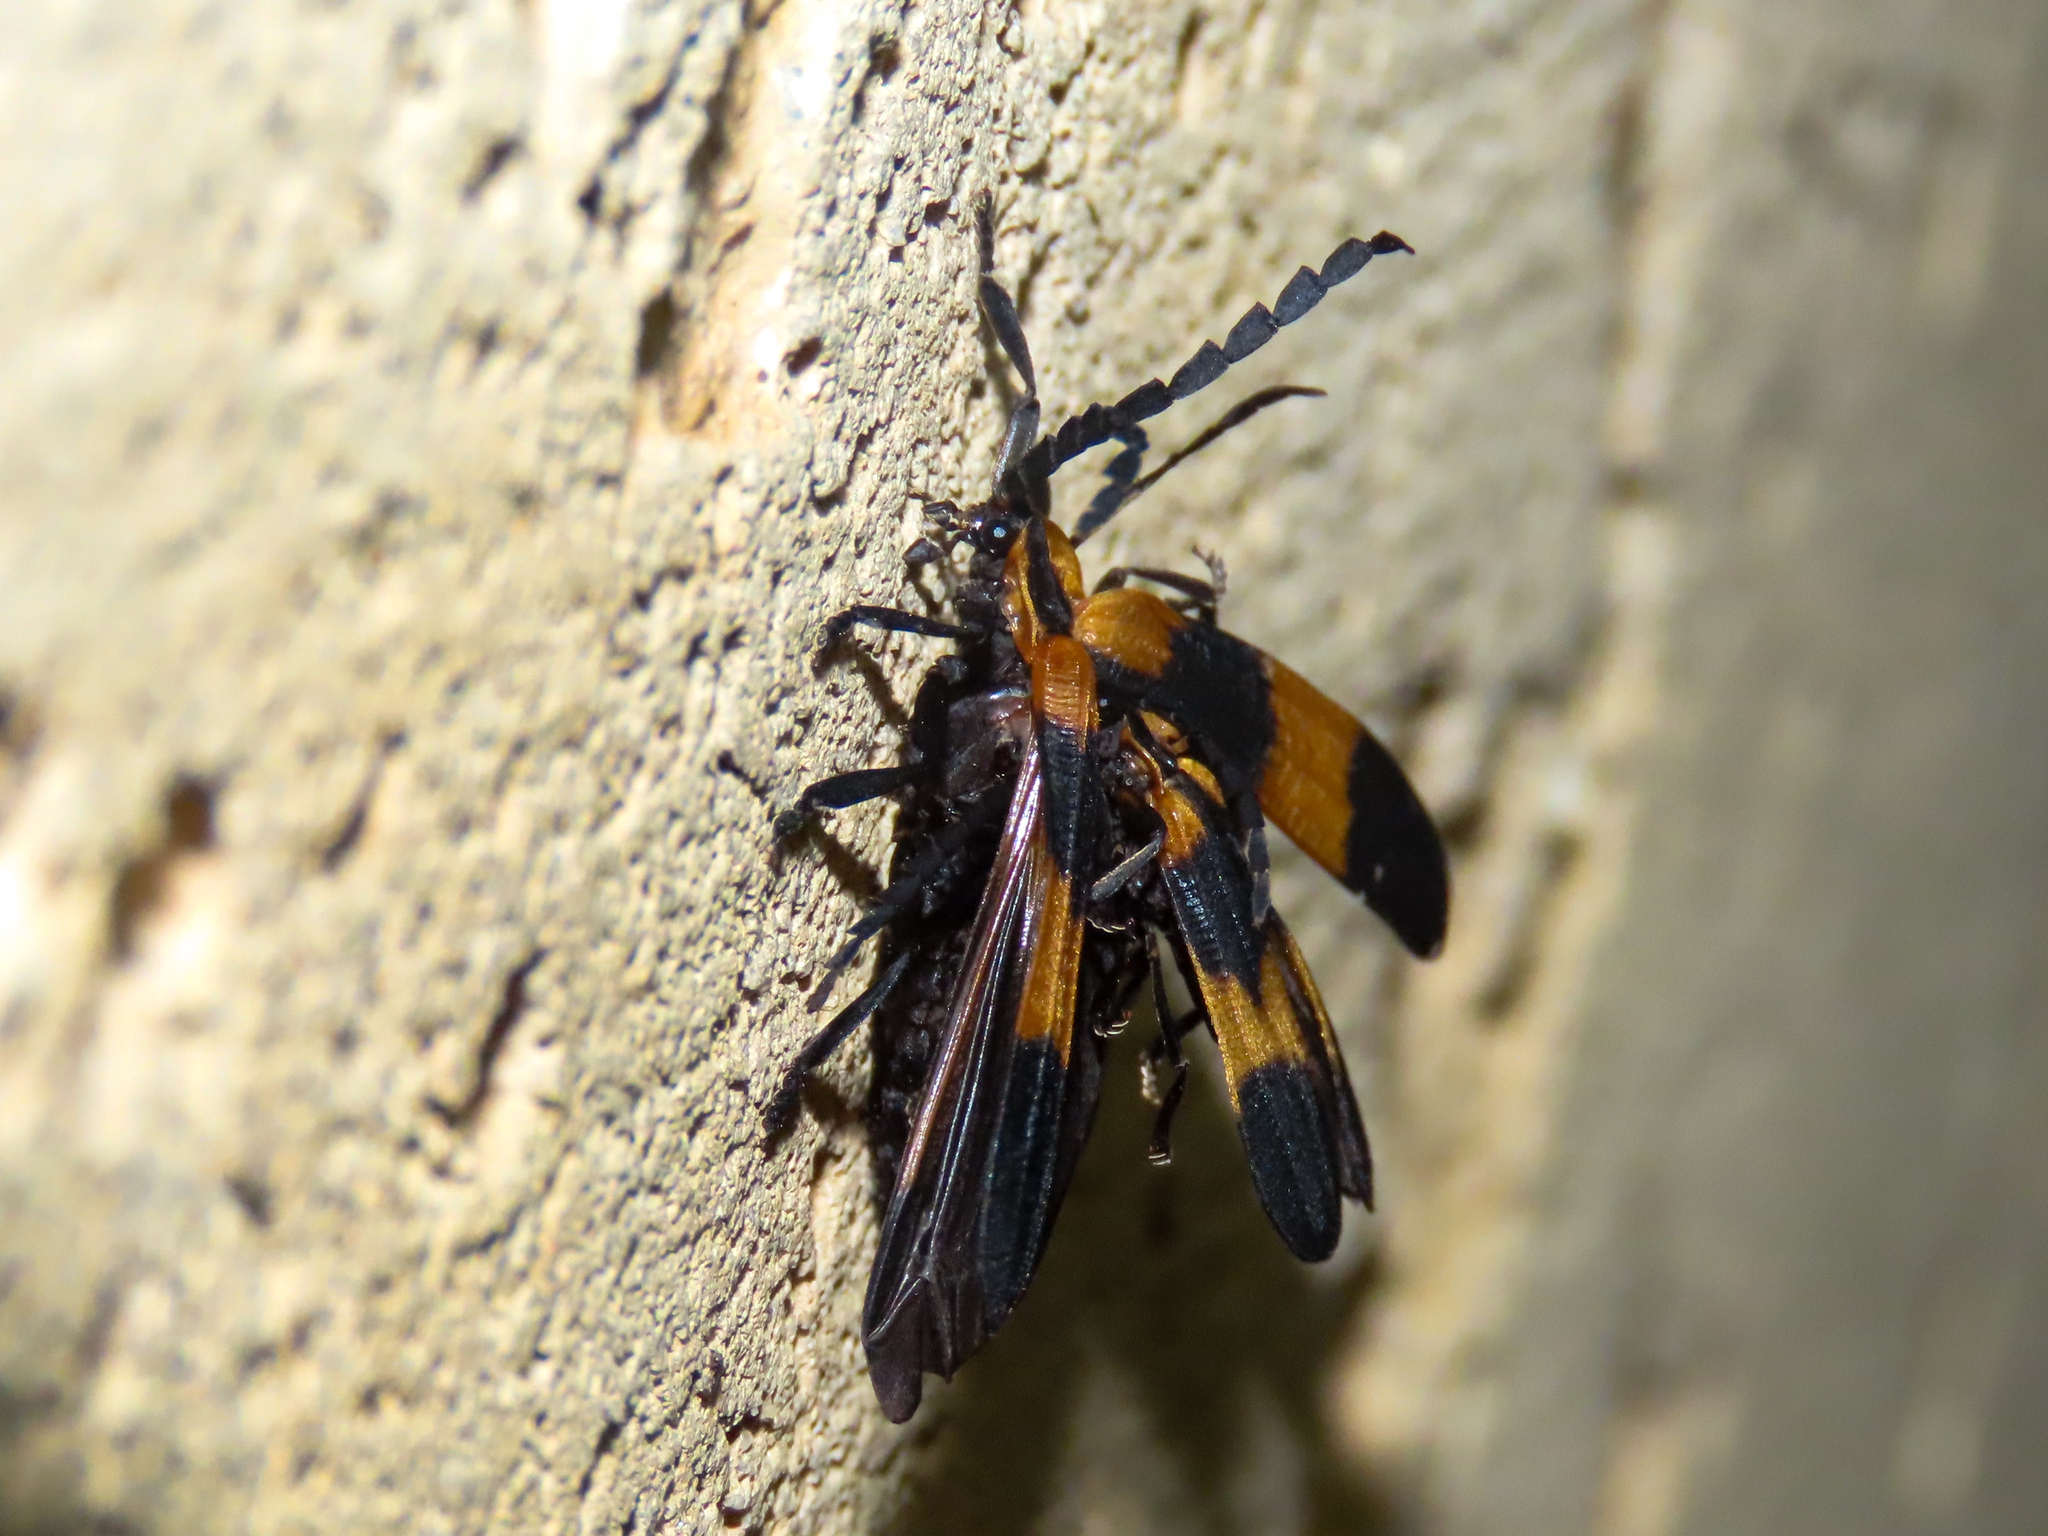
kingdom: Animalia
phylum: Arthropoda
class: Insecta
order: Coleoptera
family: Lycidae
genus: Calopteron
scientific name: Calopteron reticulatum
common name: Banded net-winged beetle
